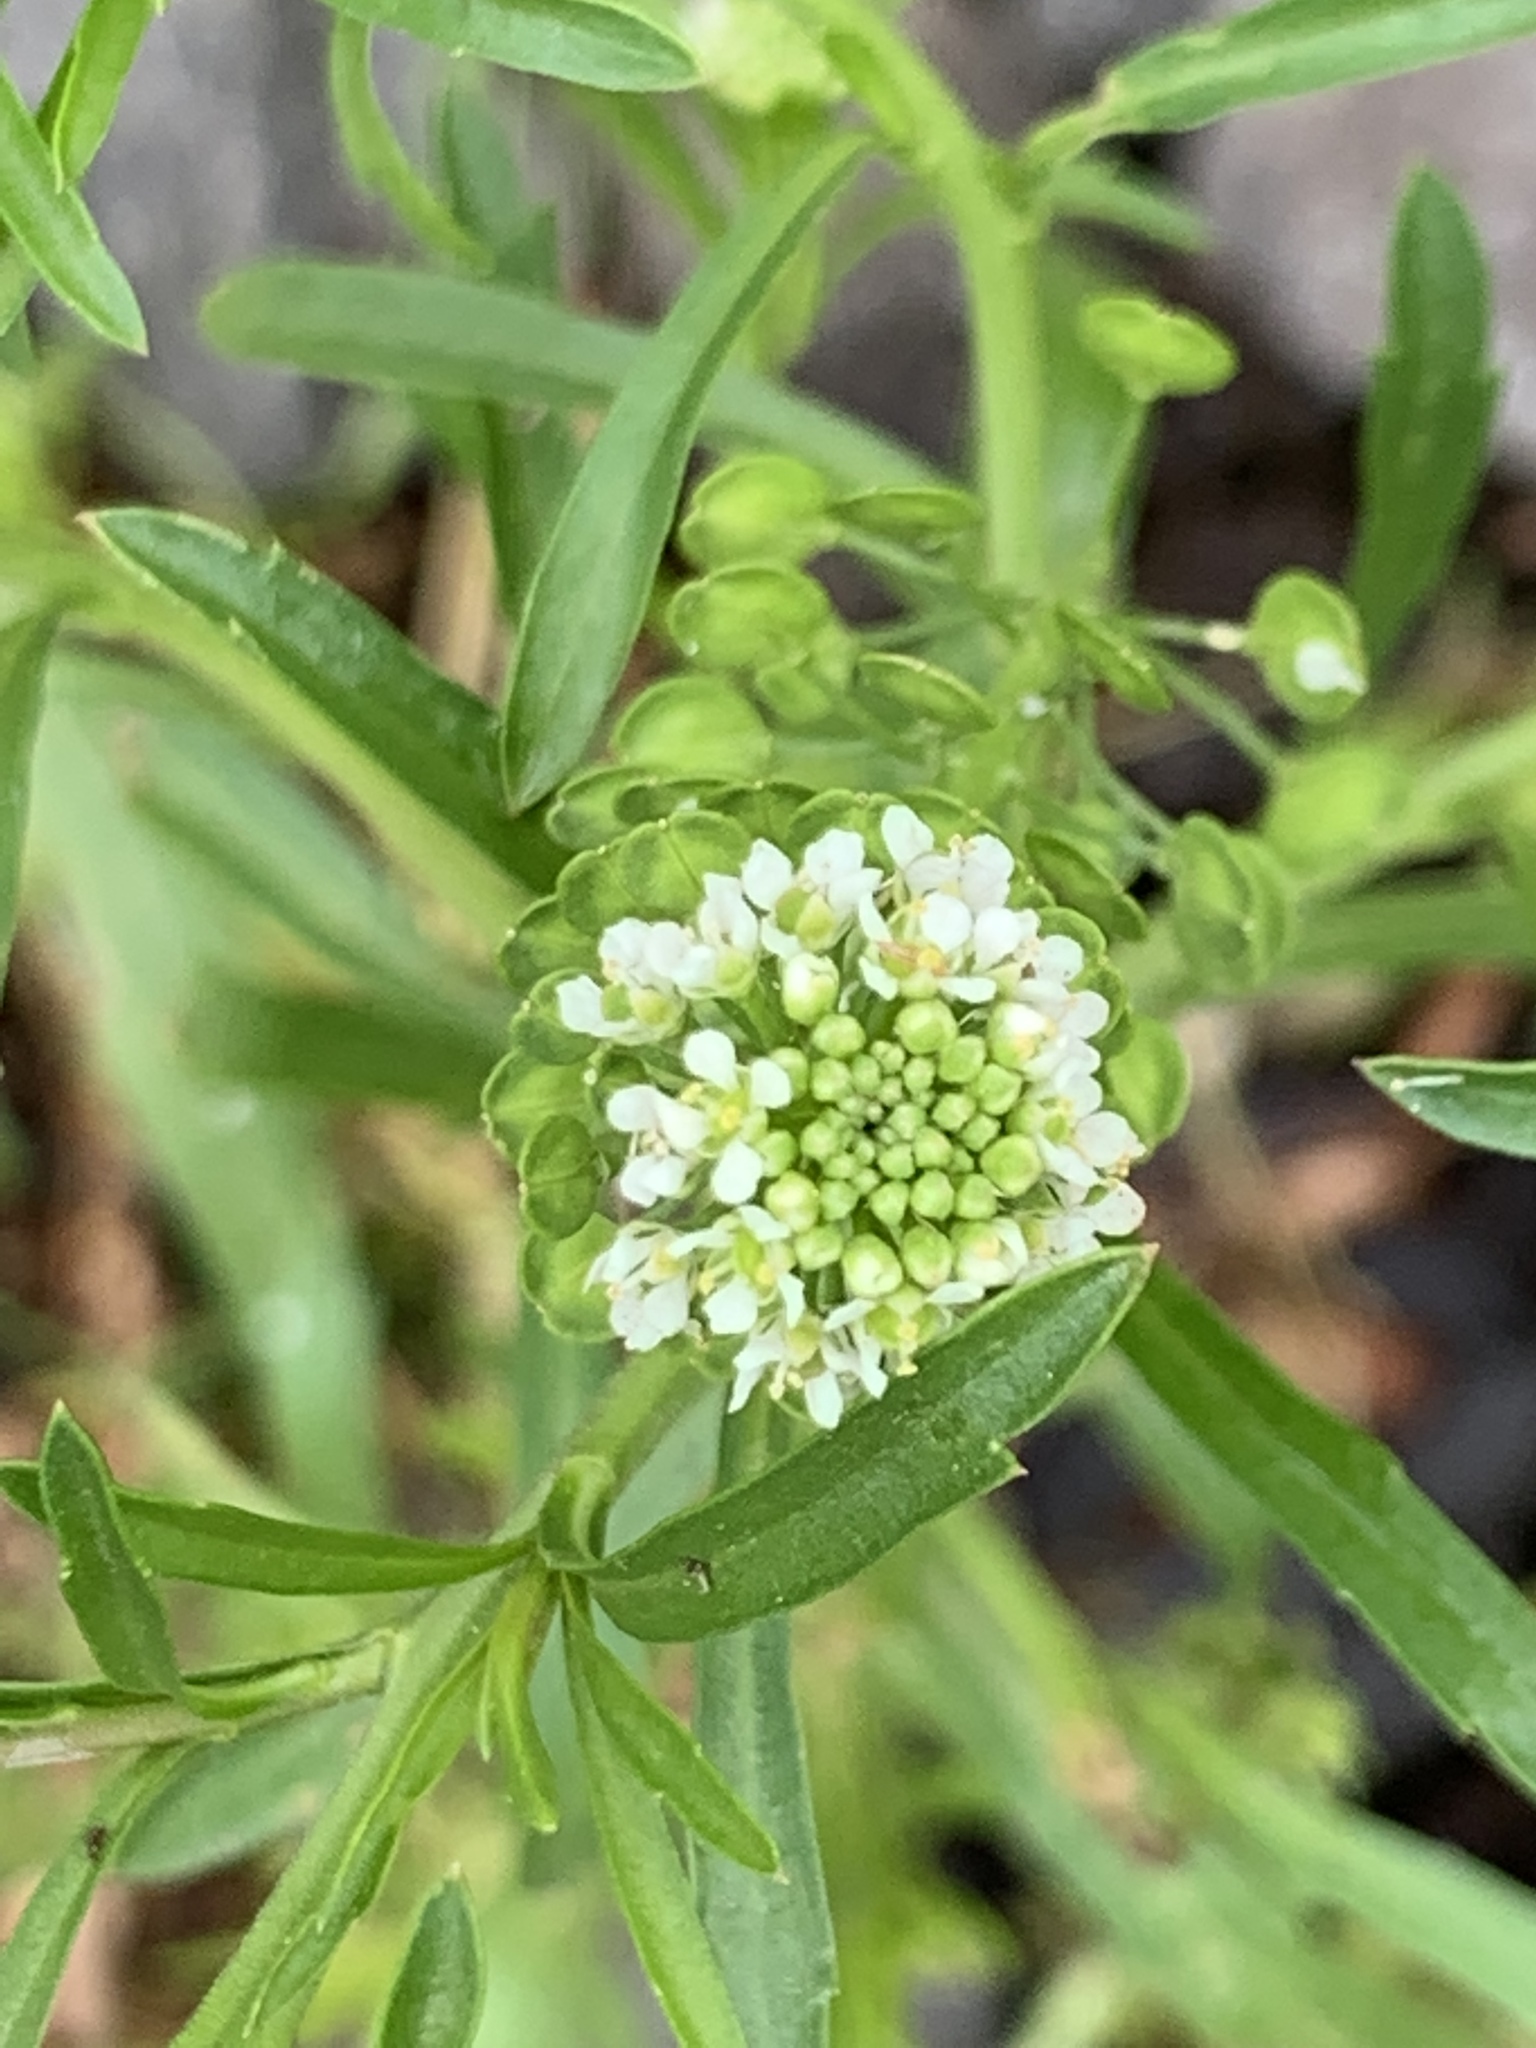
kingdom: Plantae
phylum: Tracheophyta
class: Magnoliopsida
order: Brassicales
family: Brassicaceae
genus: Lepidium
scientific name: Lepidium virginicum
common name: Least pepperwort
